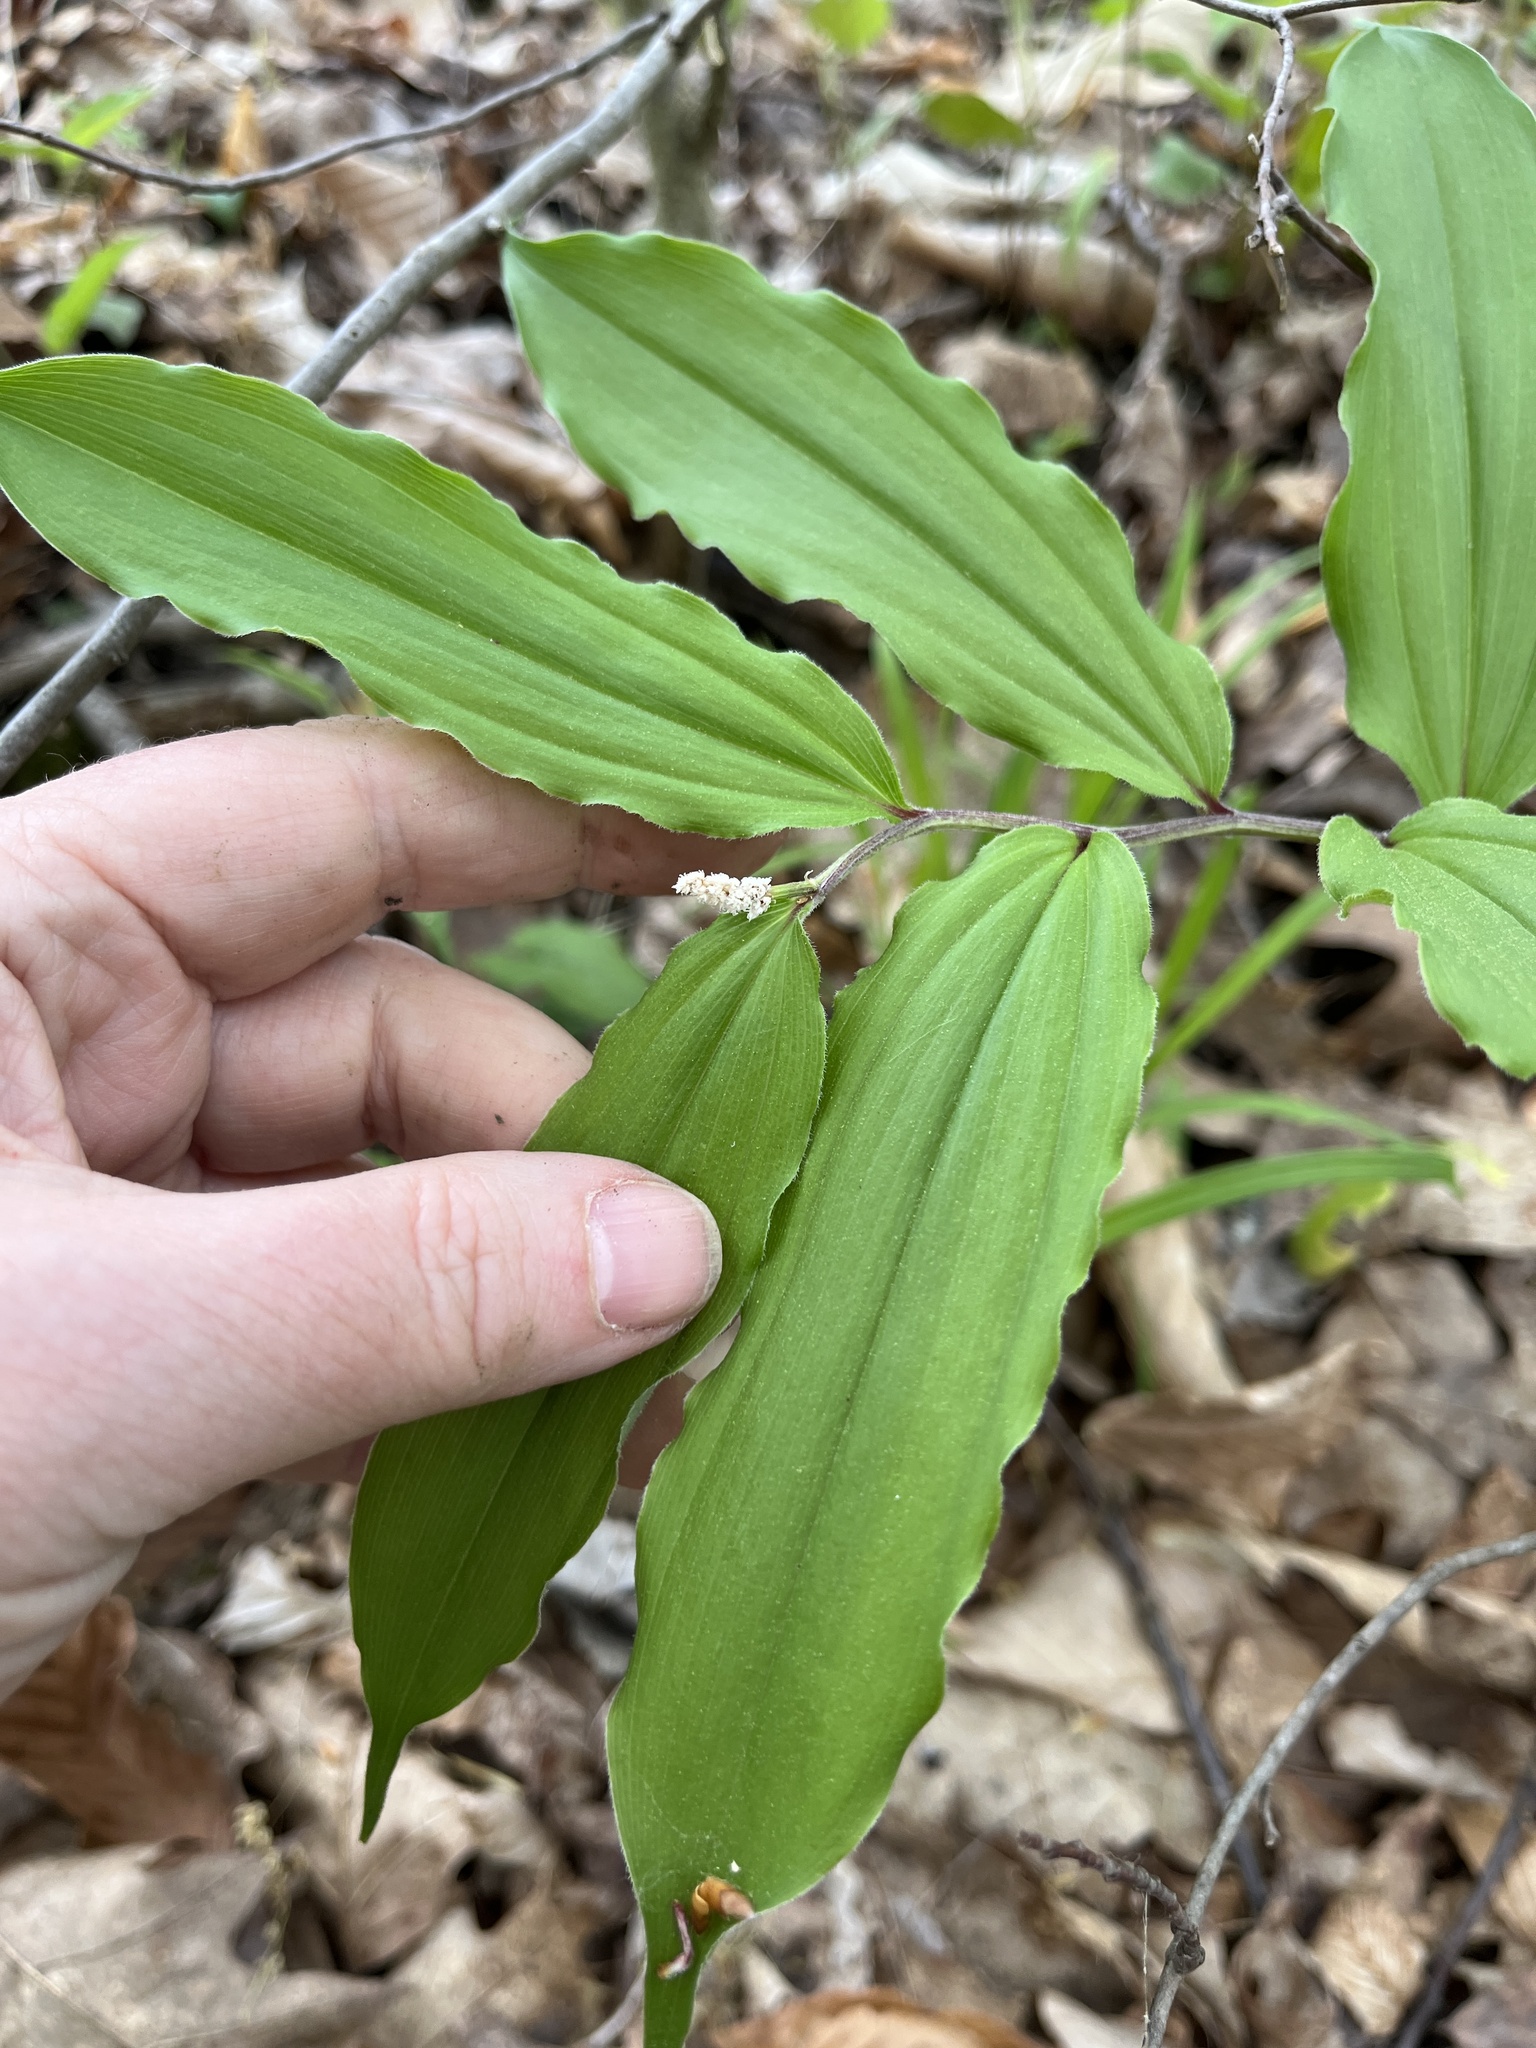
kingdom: Plantae
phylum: Tracheophyta
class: Liliopsida
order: Asparagales
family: Asparagaceae
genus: Maianthemum
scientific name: Maianthemum racemosum
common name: False spikenard
